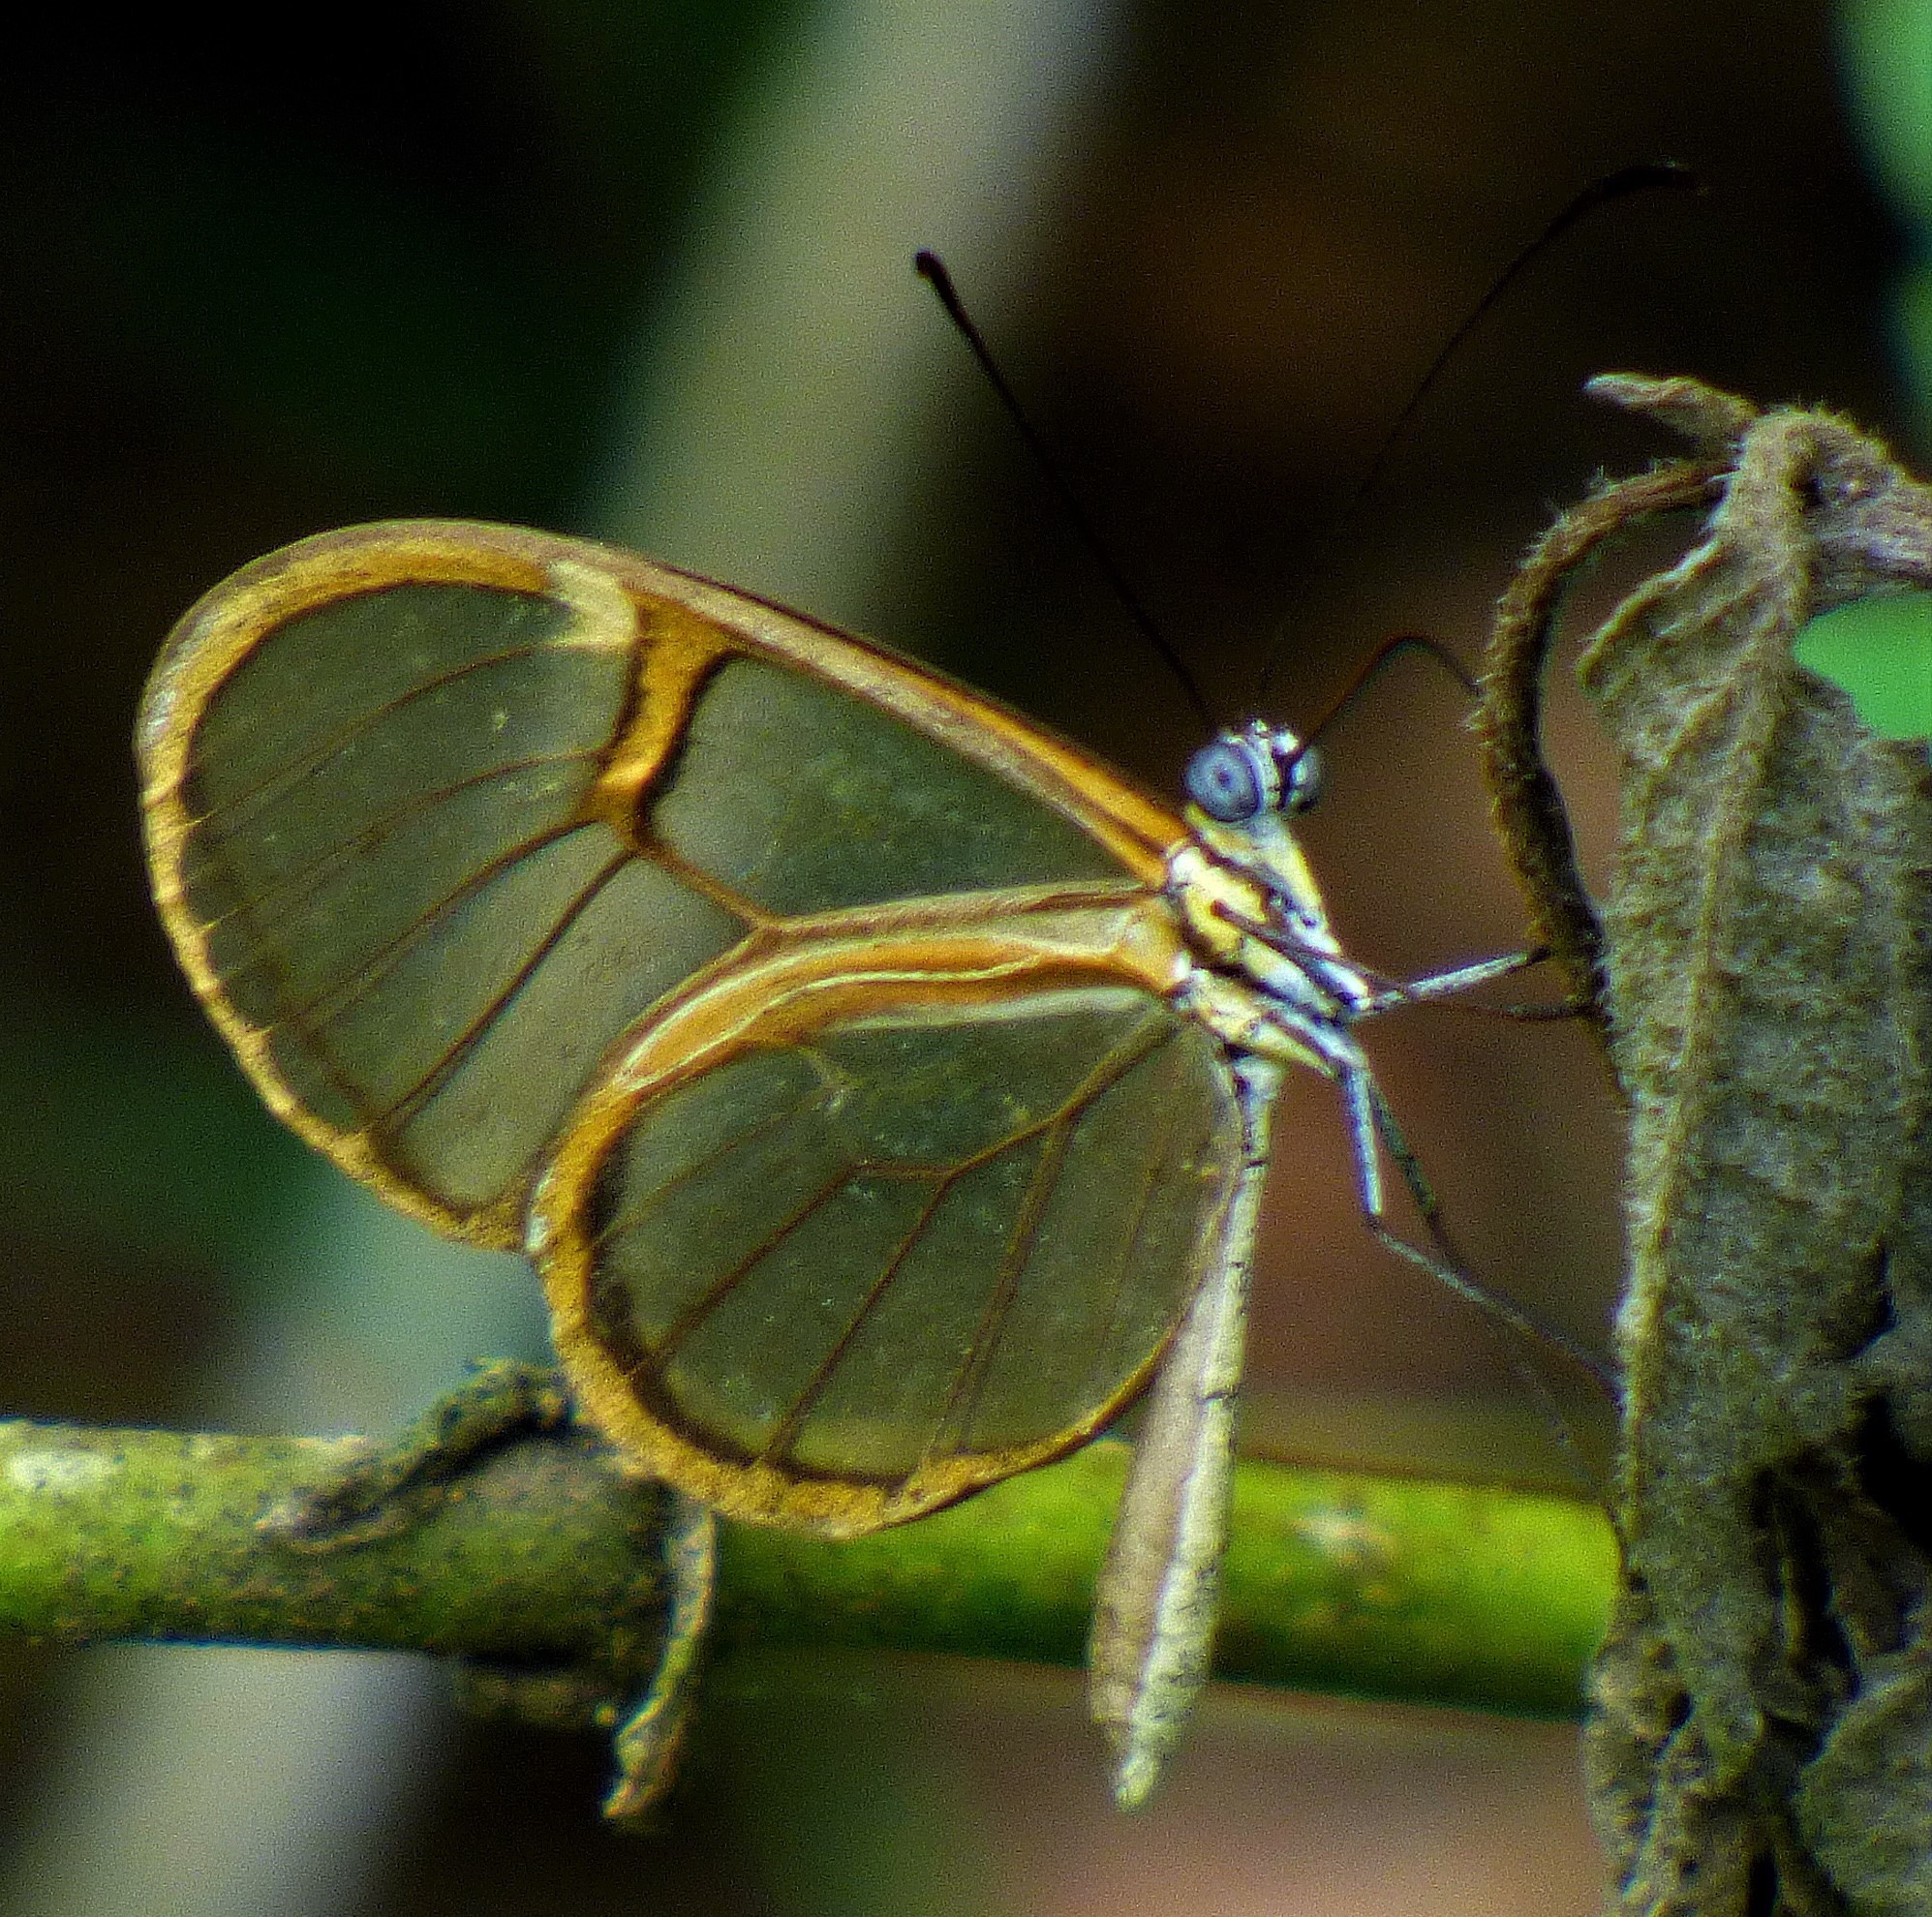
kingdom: Animalia
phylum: Arthropoda
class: Insecta
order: Lepidoptera
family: Nymphalidae
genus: Episcada
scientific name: Episcada hymenaea
